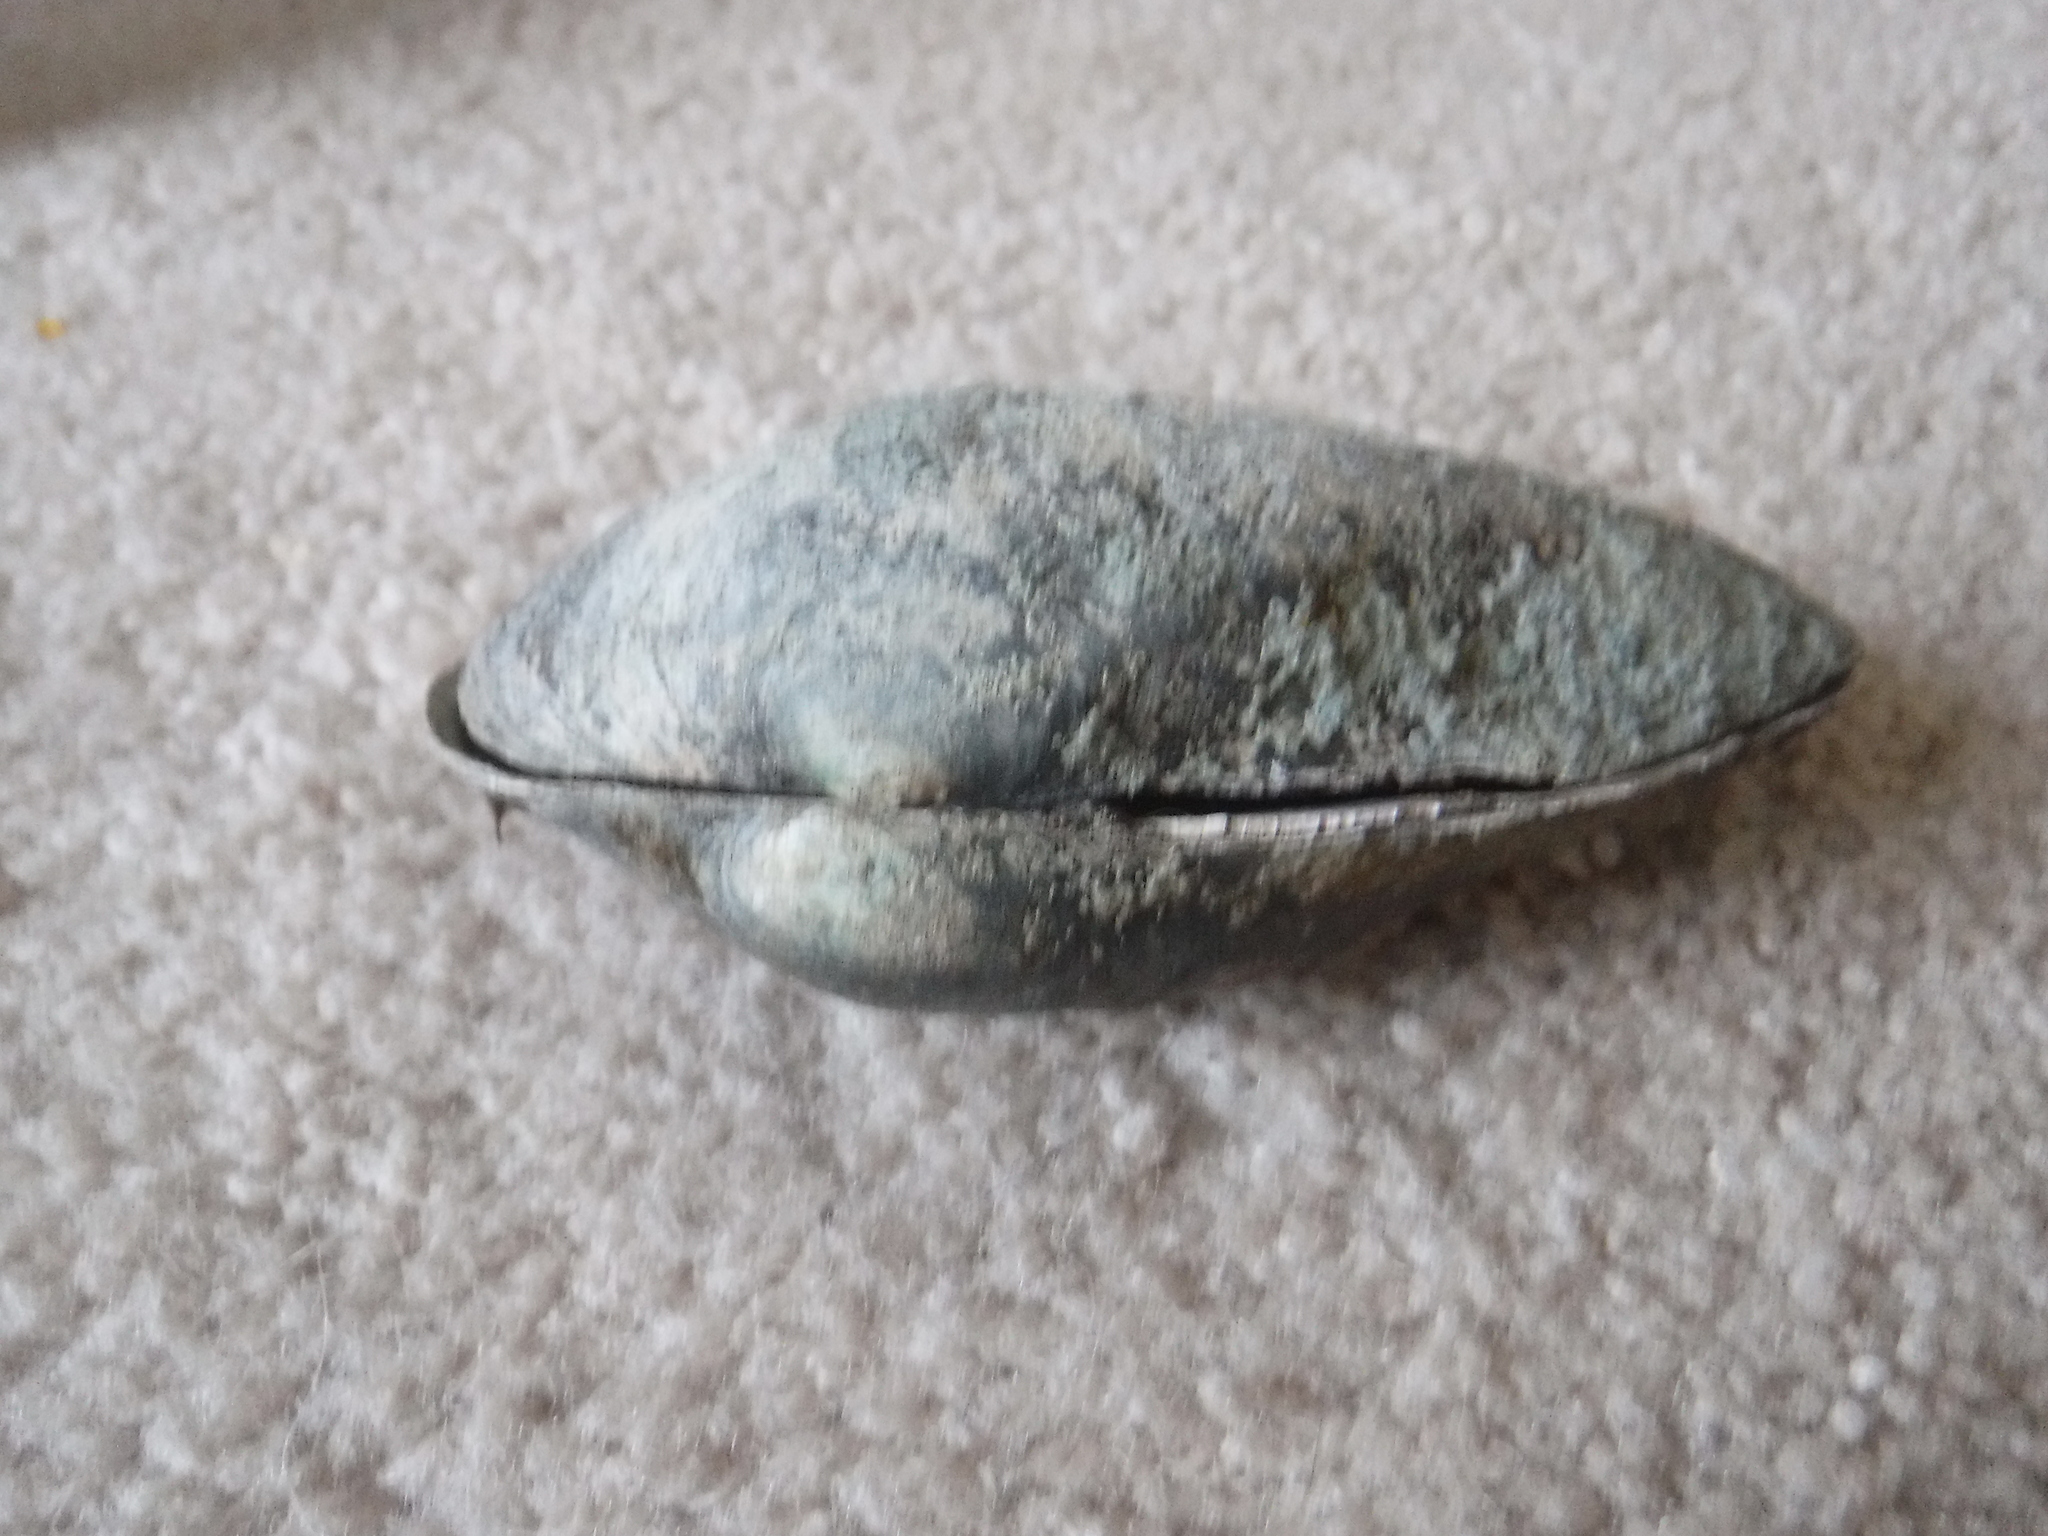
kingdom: Animalia
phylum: Mollusca
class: Bivalvia
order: Unionida
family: Unionidae
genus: Pyganodon
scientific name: Pyganodon grandis
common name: Giant floater
